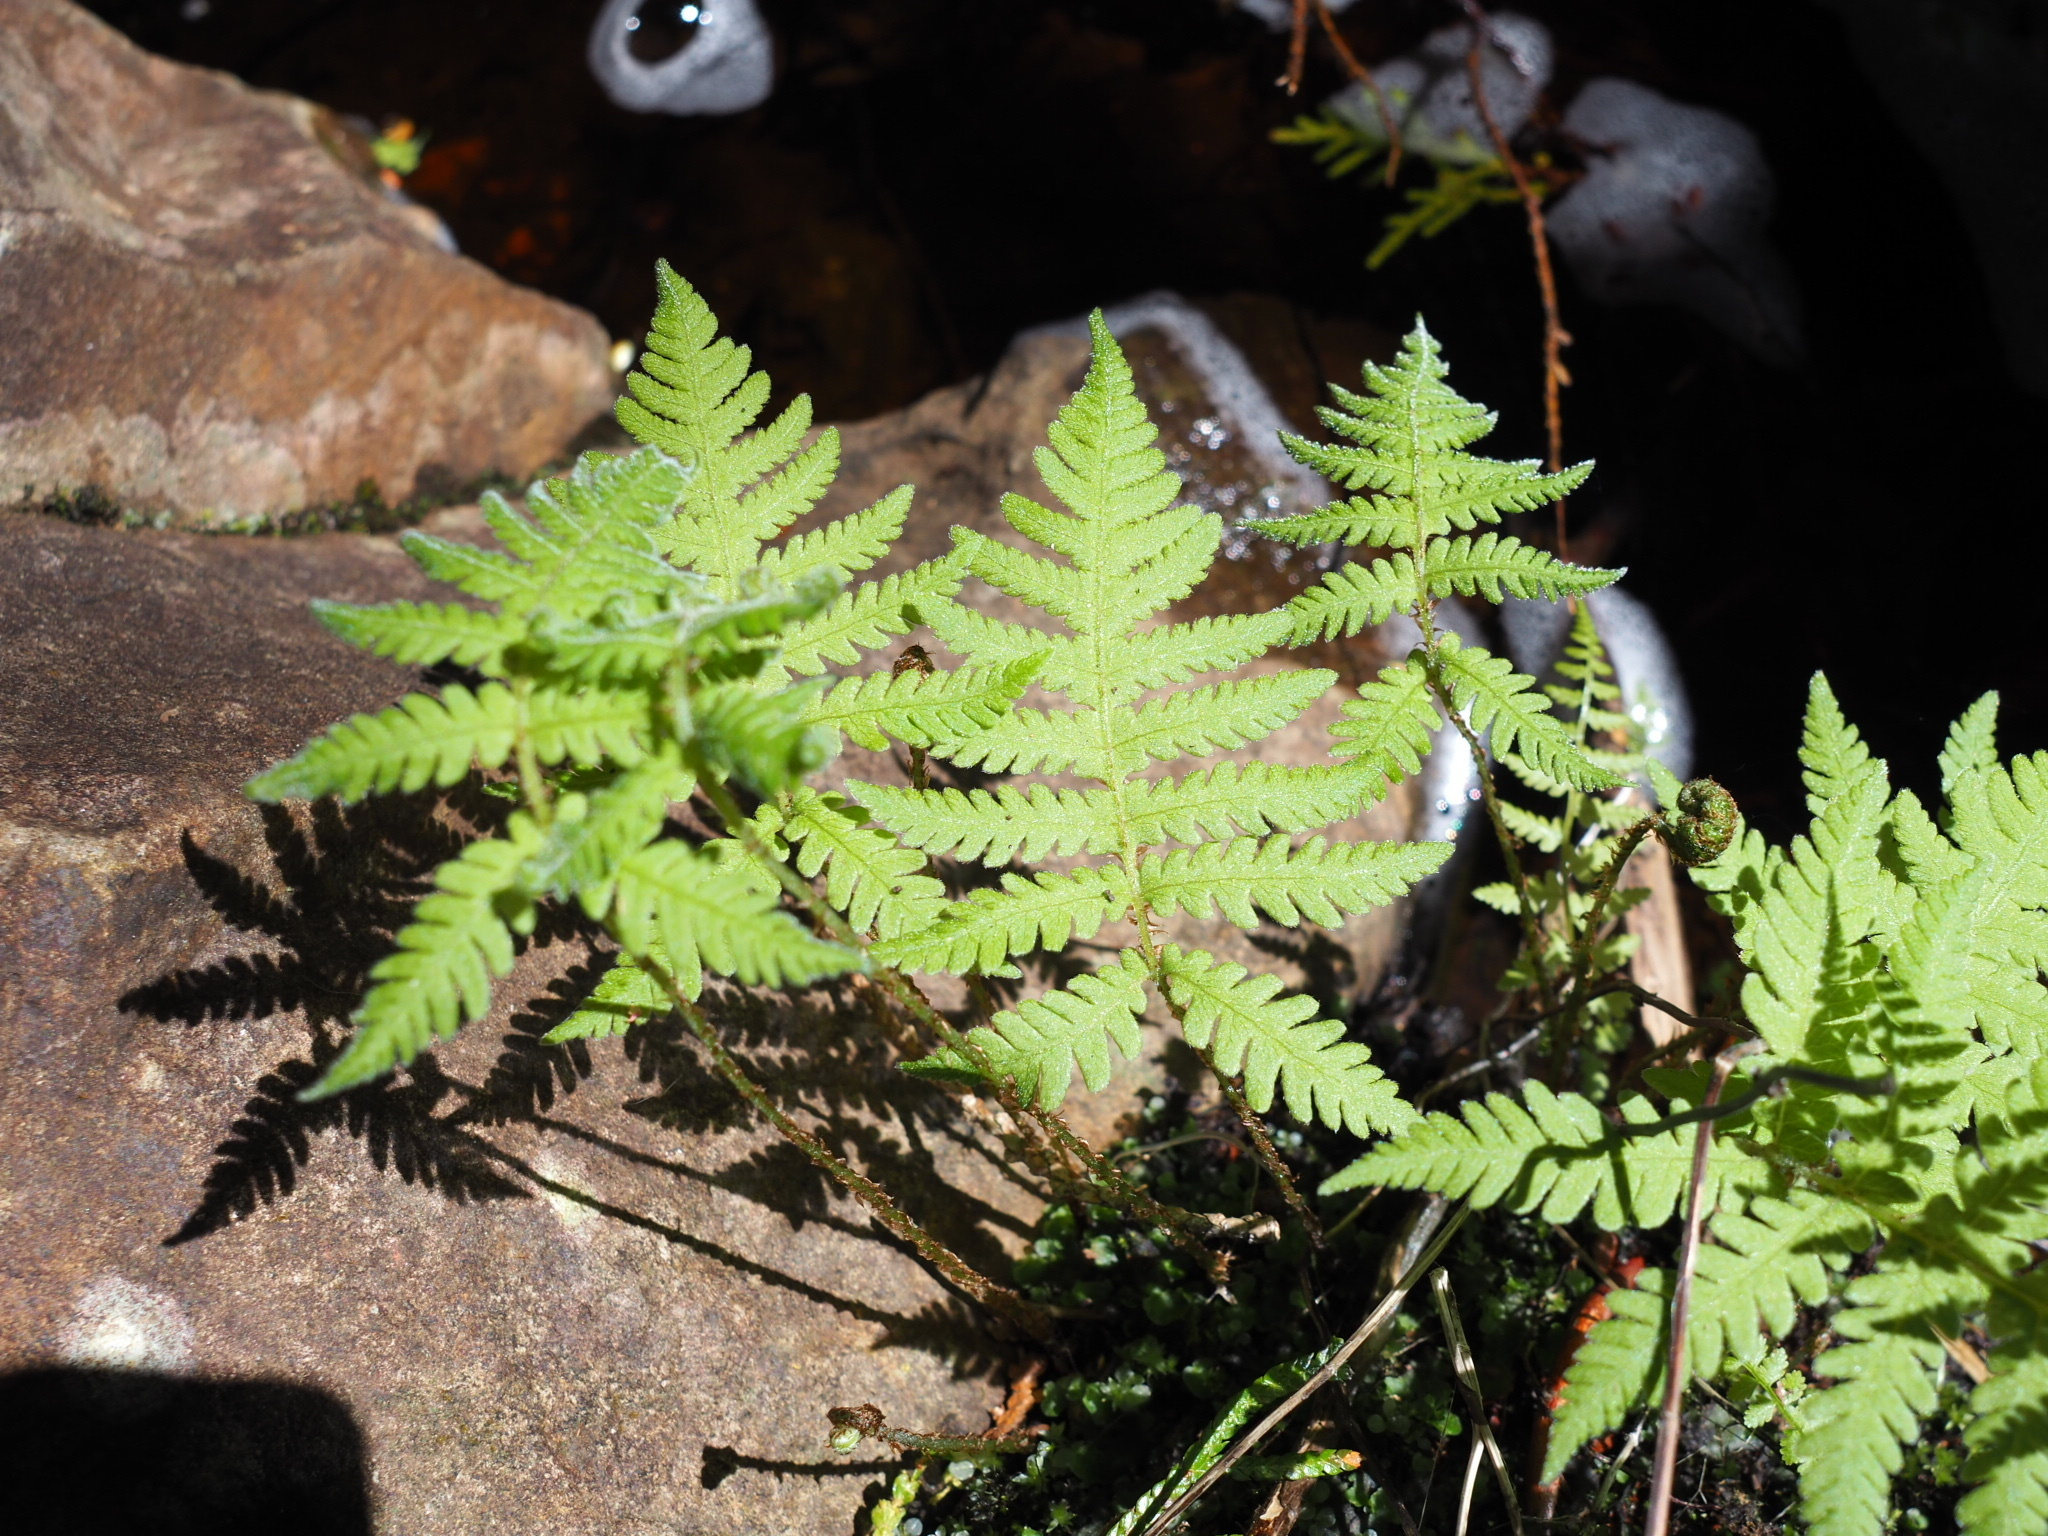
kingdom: Plantae
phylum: Tracheophyta
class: Polypodiopsida
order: Polypodiales
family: Thelypteridaceae
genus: Phegopteris
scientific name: Phegopteris connectilis
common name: Beech fern
